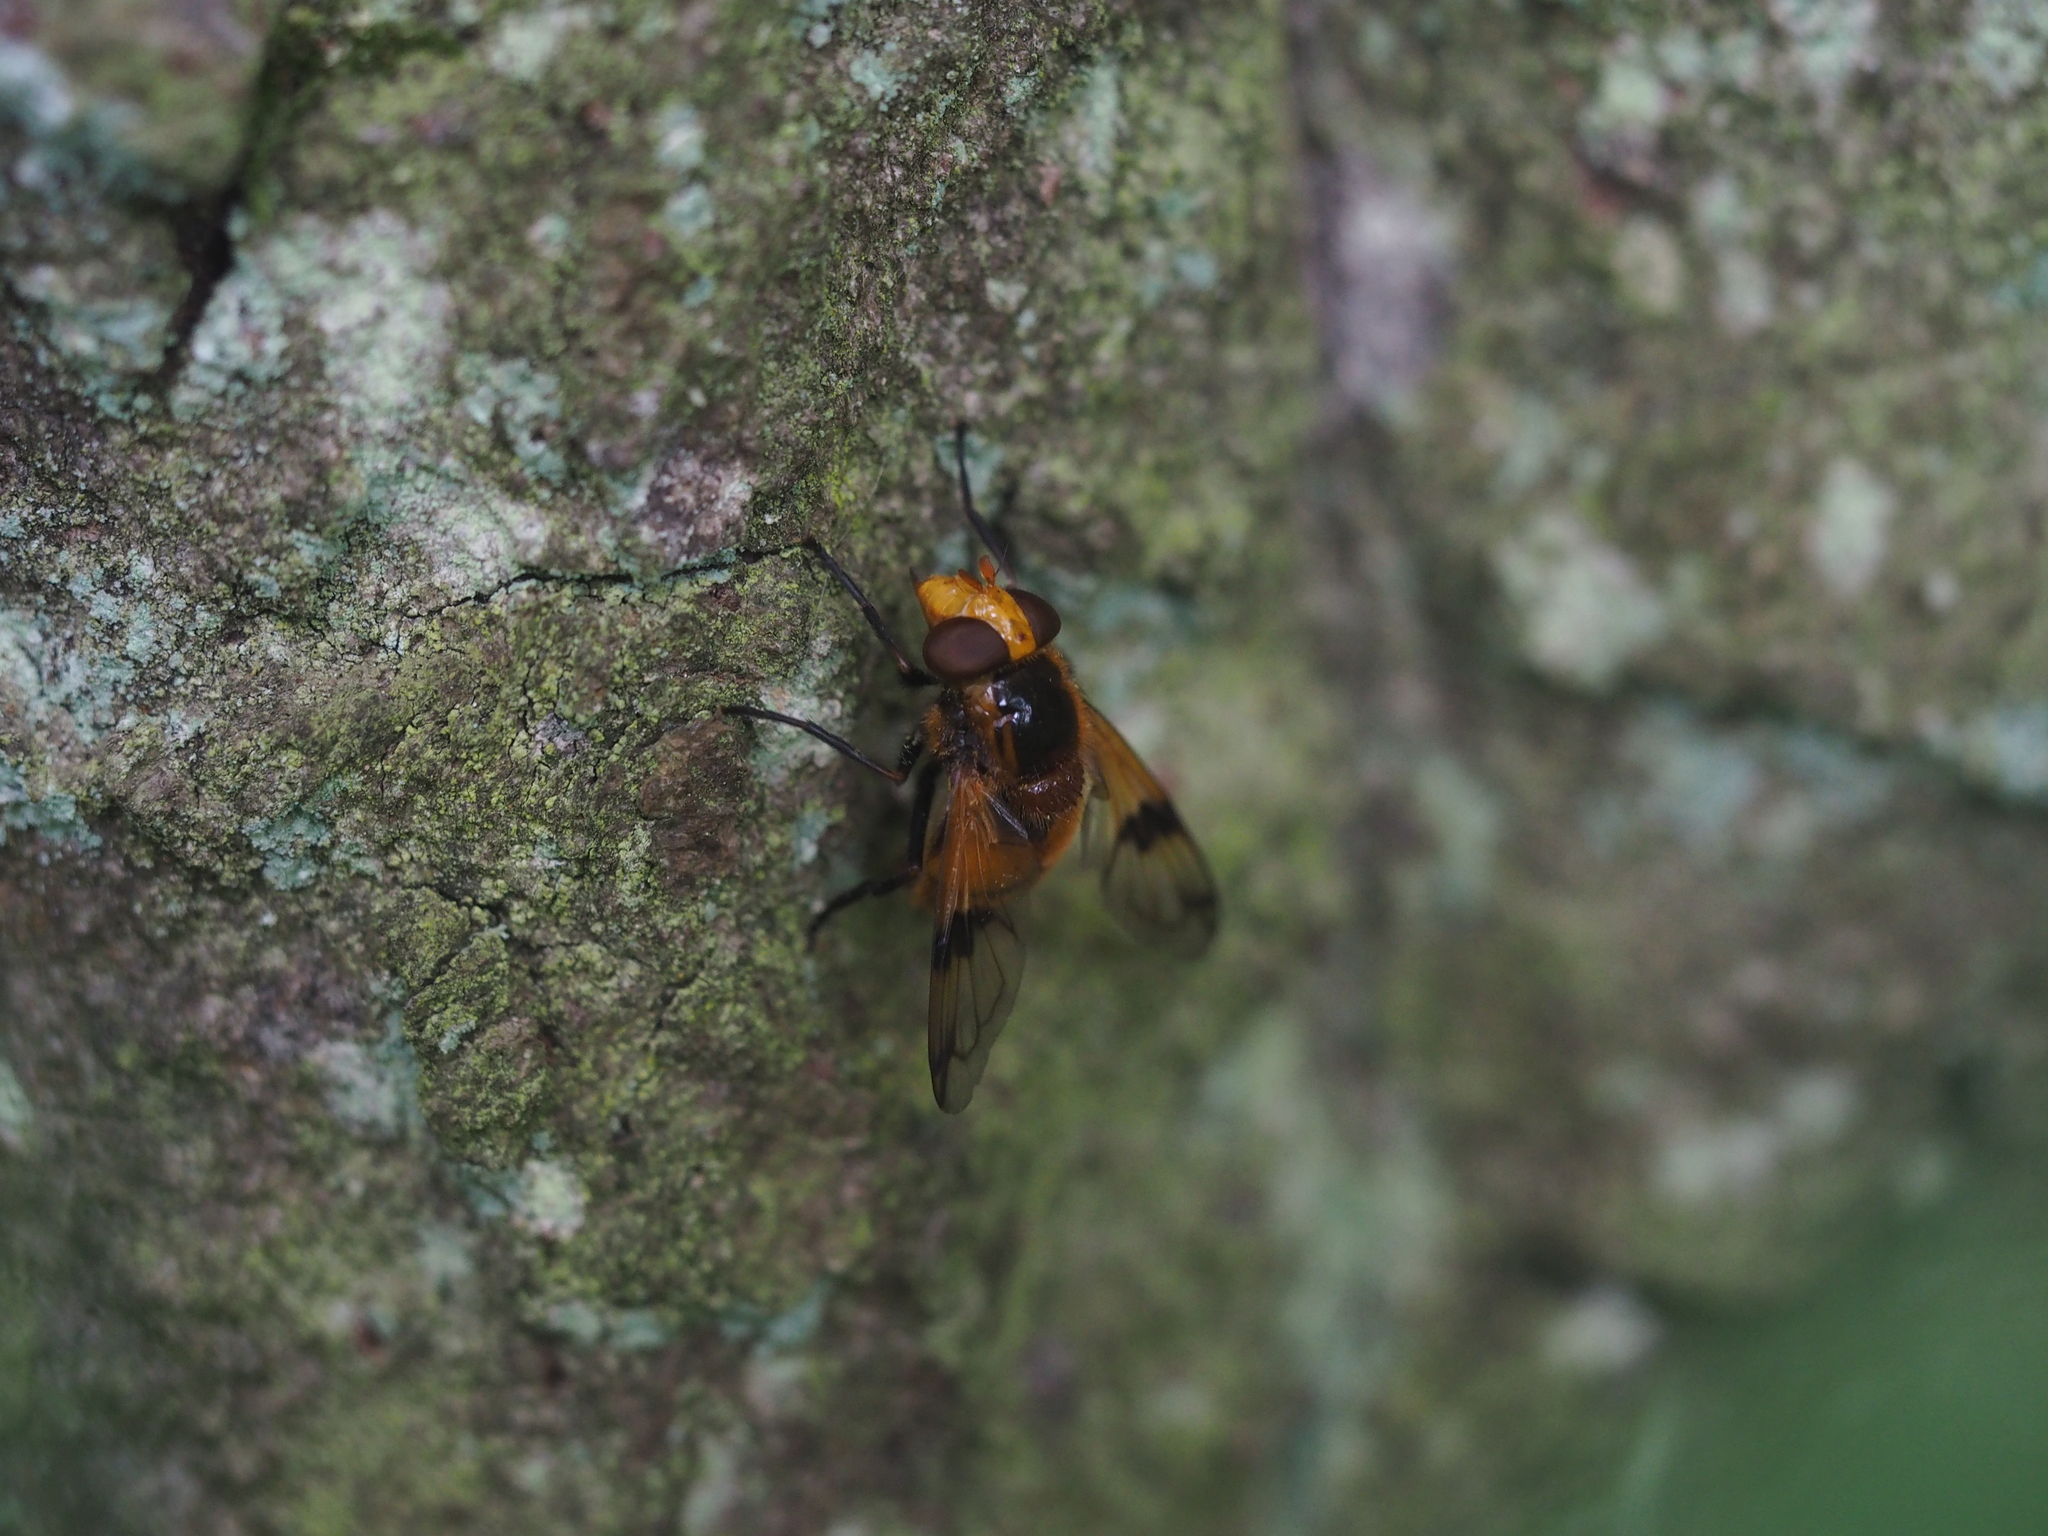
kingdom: Animalia
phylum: Arthropoda
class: Insecta
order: Diptera
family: Syrphidae
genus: Volucella
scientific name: Volucella inflata
